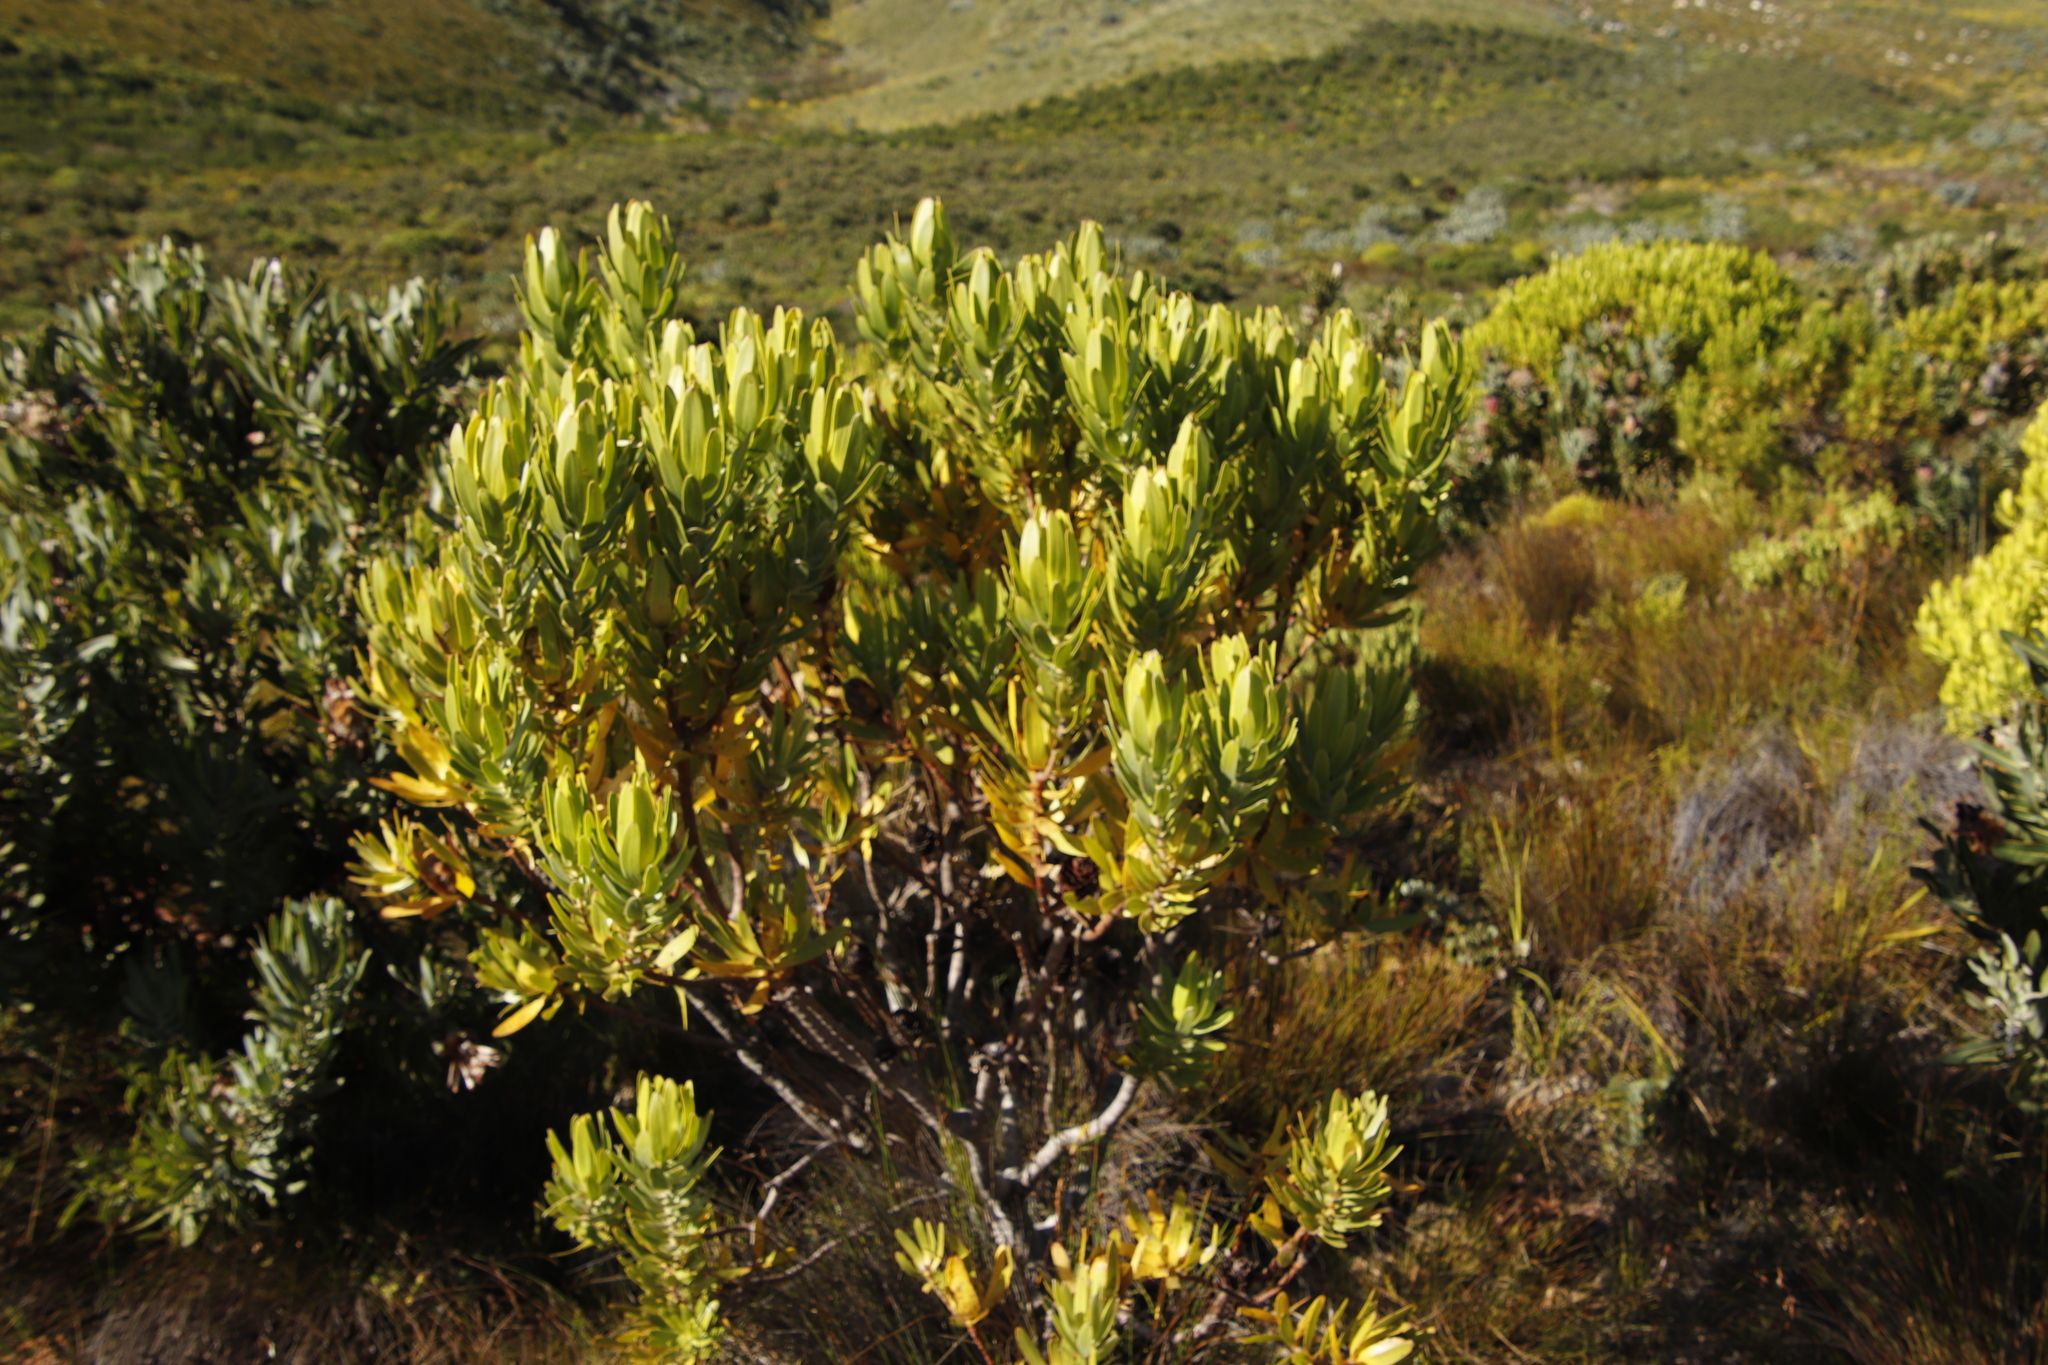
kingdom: Plantae
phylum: Tracheophyta
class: Magnoliopsida
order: Proteales
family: Proteaceae
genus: Leucadendron
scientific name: Leucadendron laureolum
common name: Golden sunshinebush
